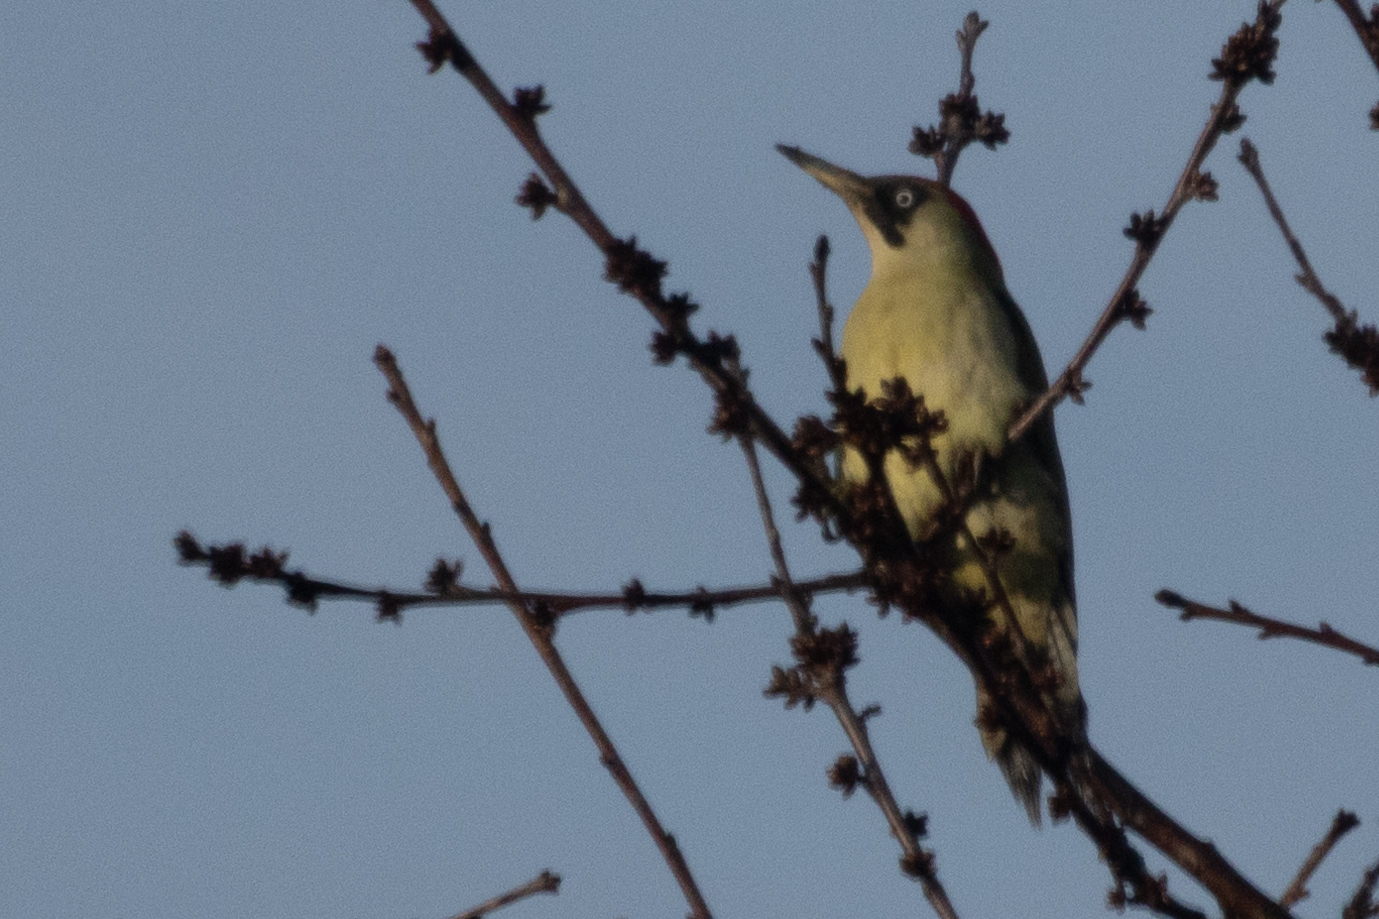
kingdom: Animalia
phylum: Chordata
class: Aves
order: Piciformes
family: Picidae
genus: Picus
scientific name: Picus viridis
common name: European green woodpecker
